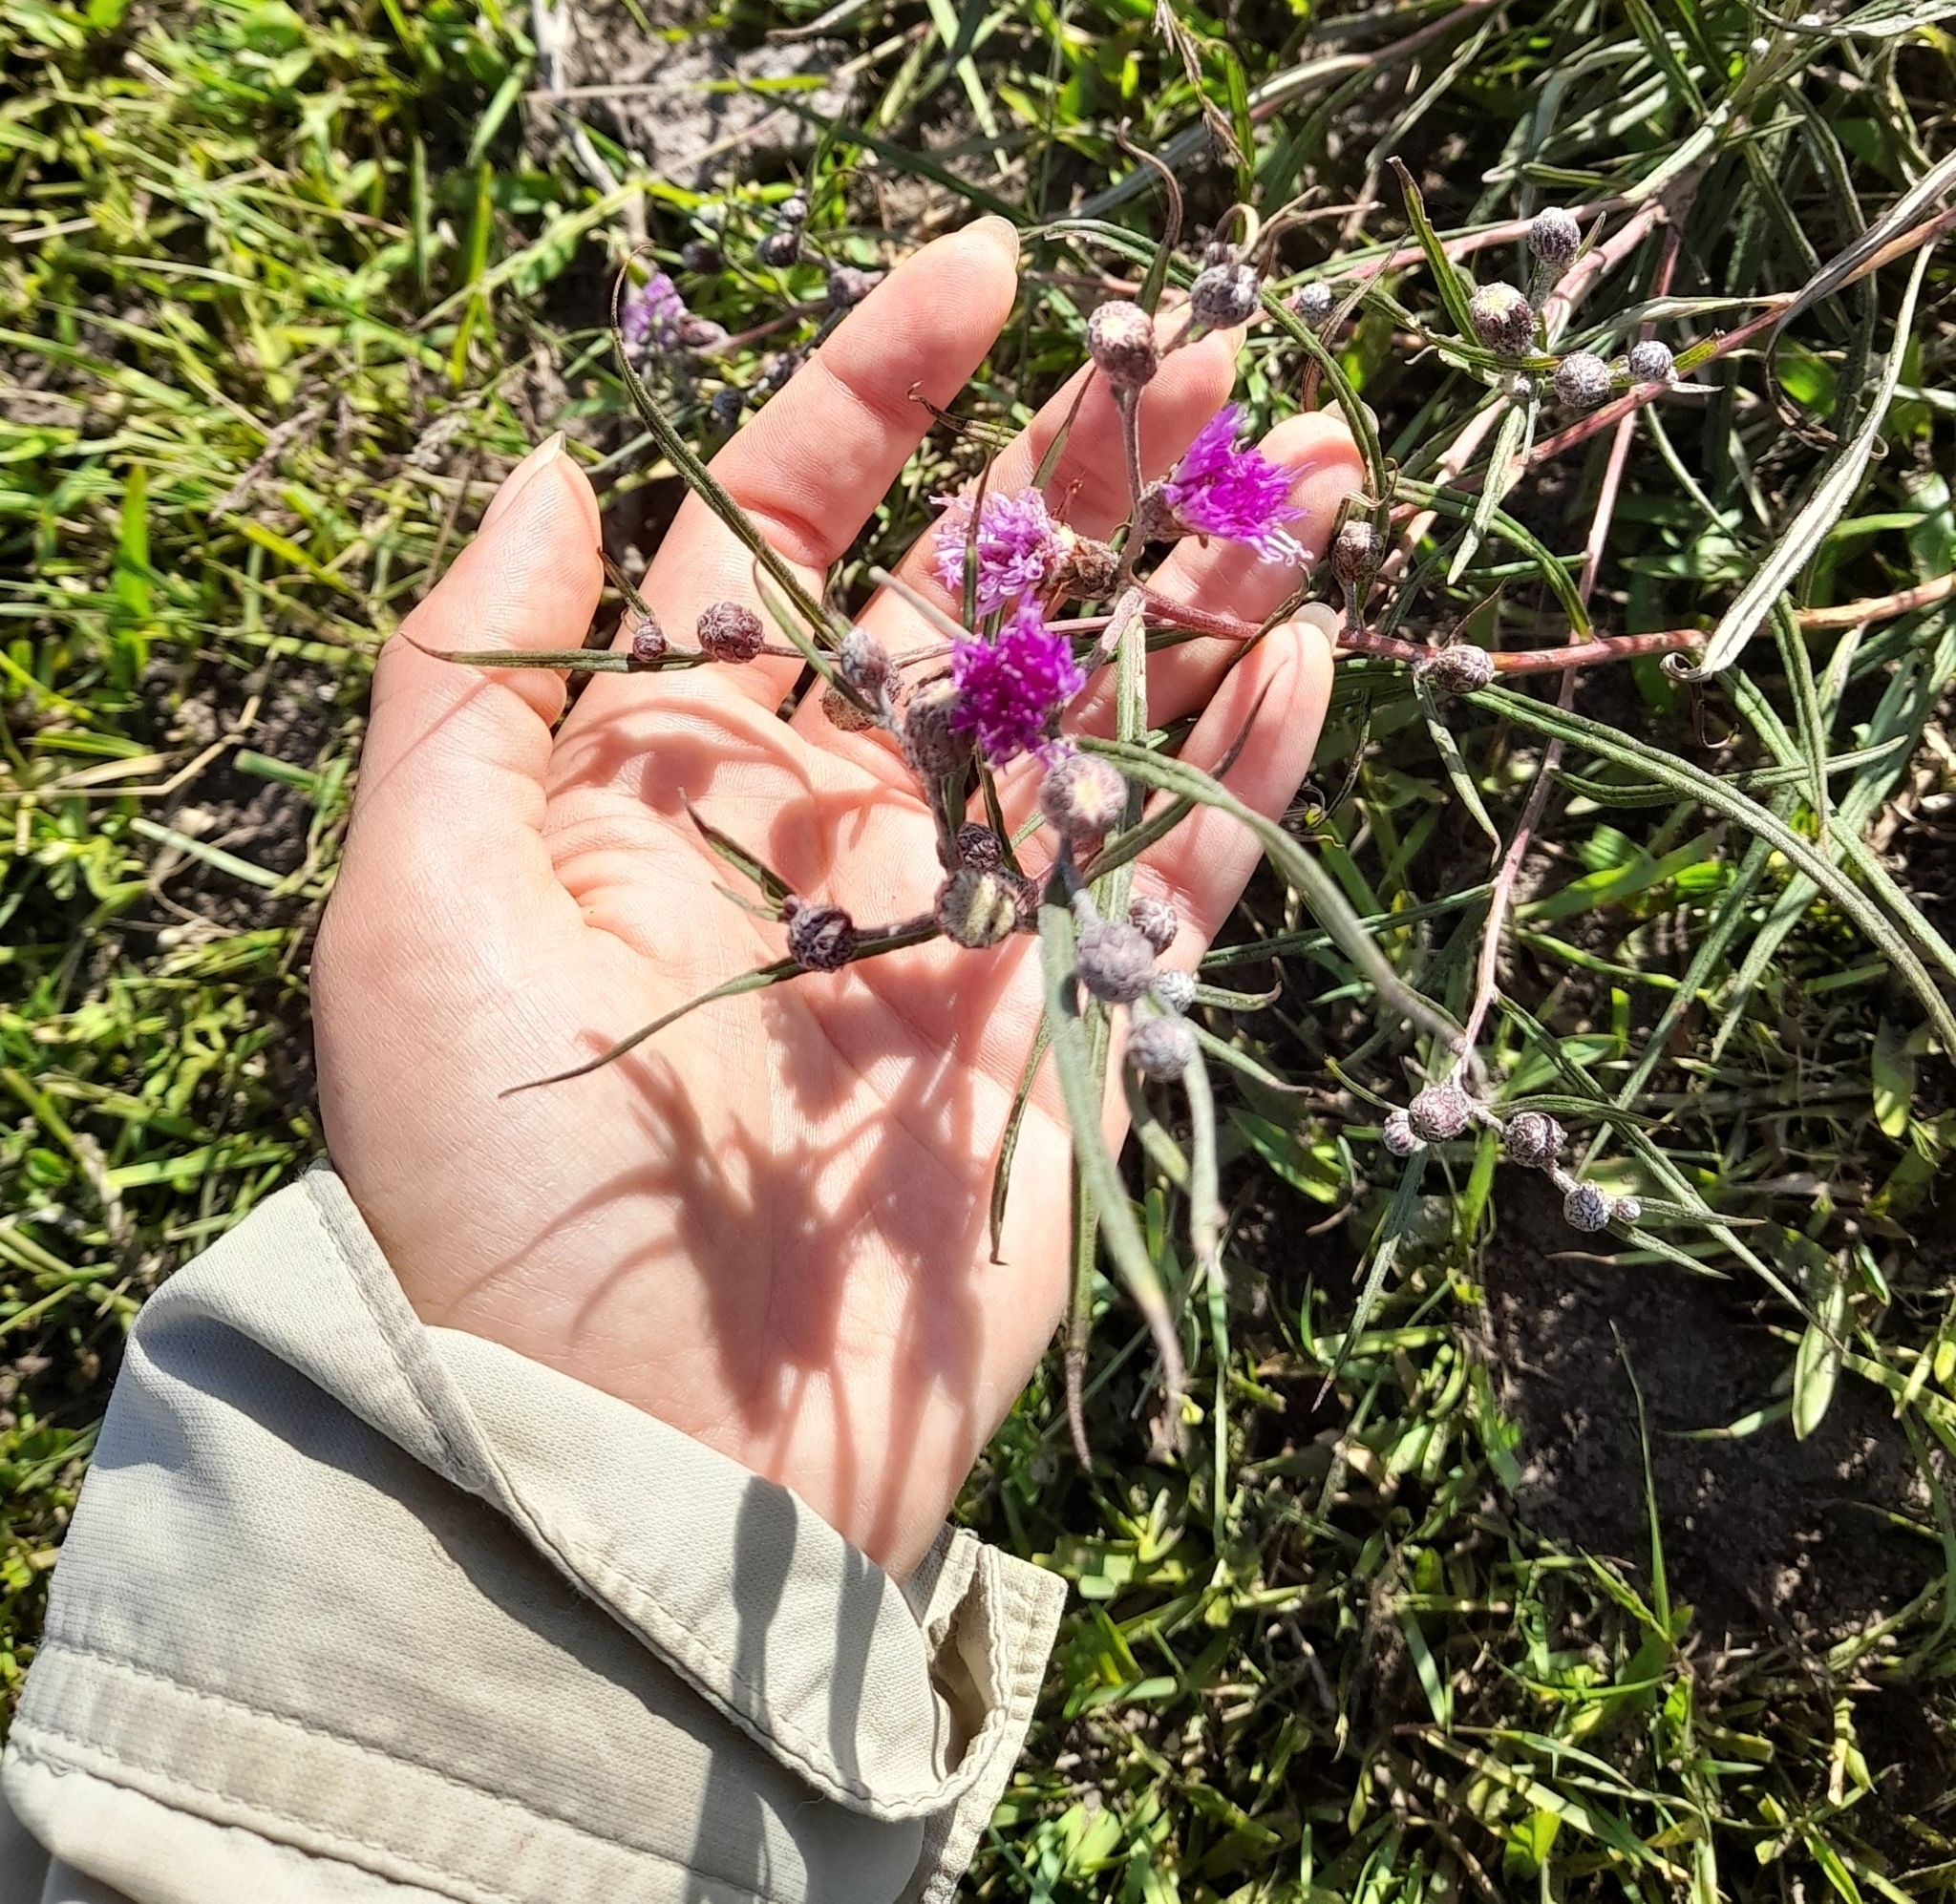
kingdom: Plantae
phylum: Tracheophyta
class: Magnoliopsida
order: Asterales
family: Asteraceae
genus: Lessingianthus
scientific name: Lessingianthus rubricaulis
